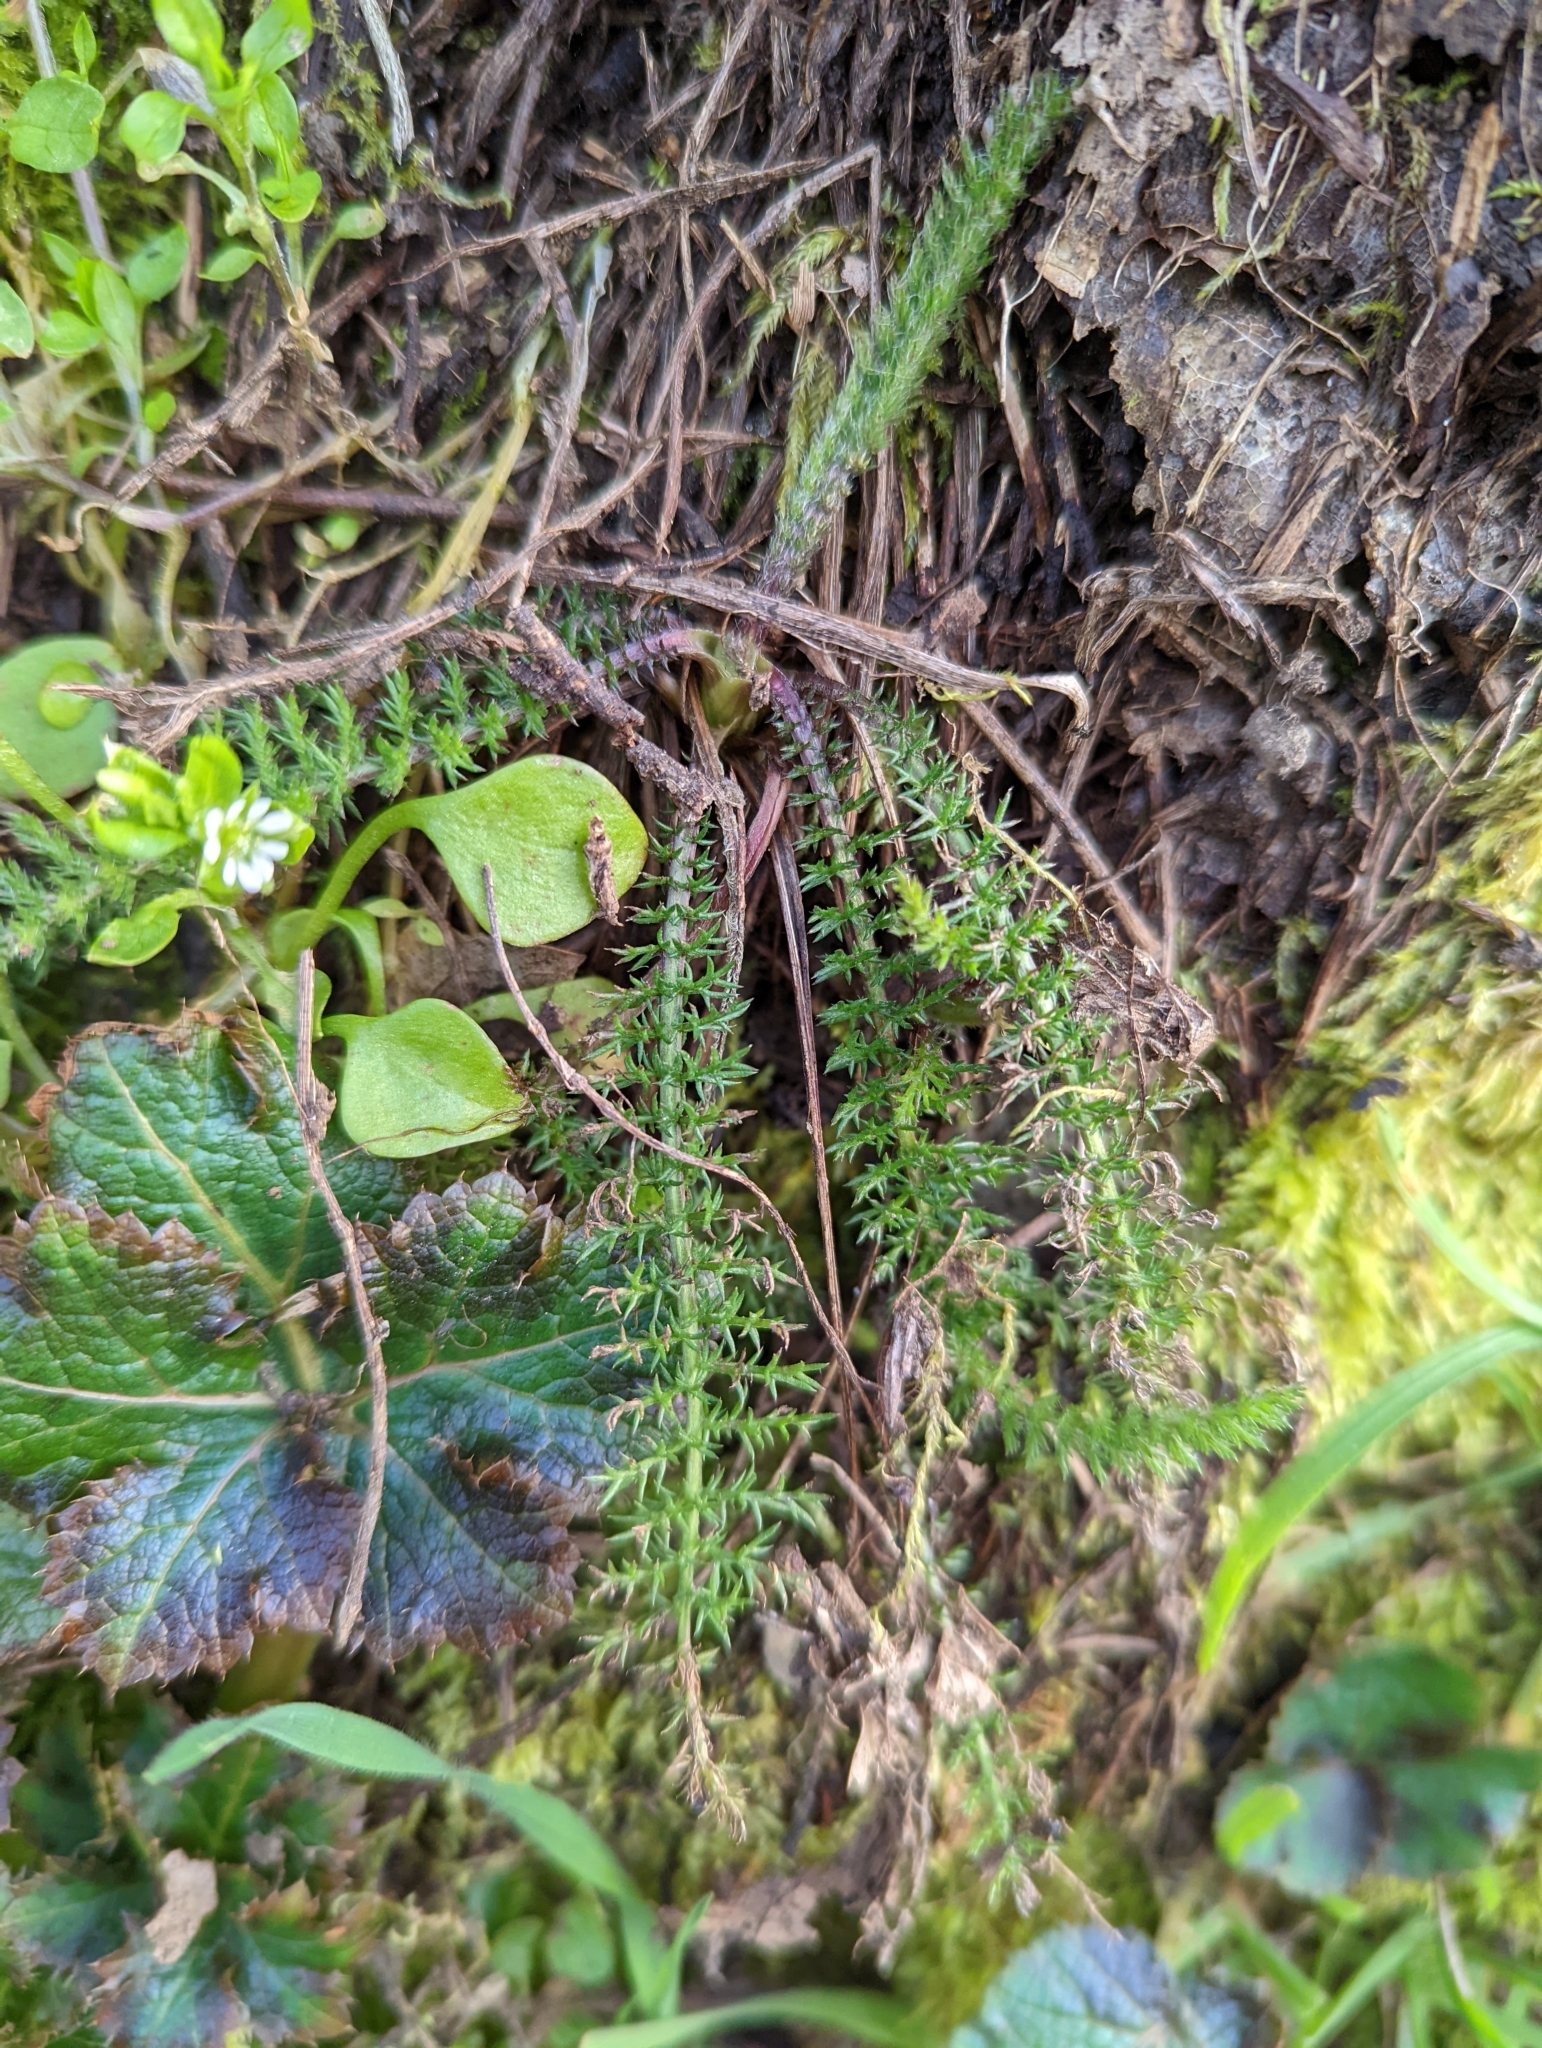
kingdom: Plantae
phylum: Tracheophyta
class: Magnoliopsida
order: Asterales
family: Asteraceae
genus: Achillea
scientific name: Achillea millefolium
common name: Yarrow
